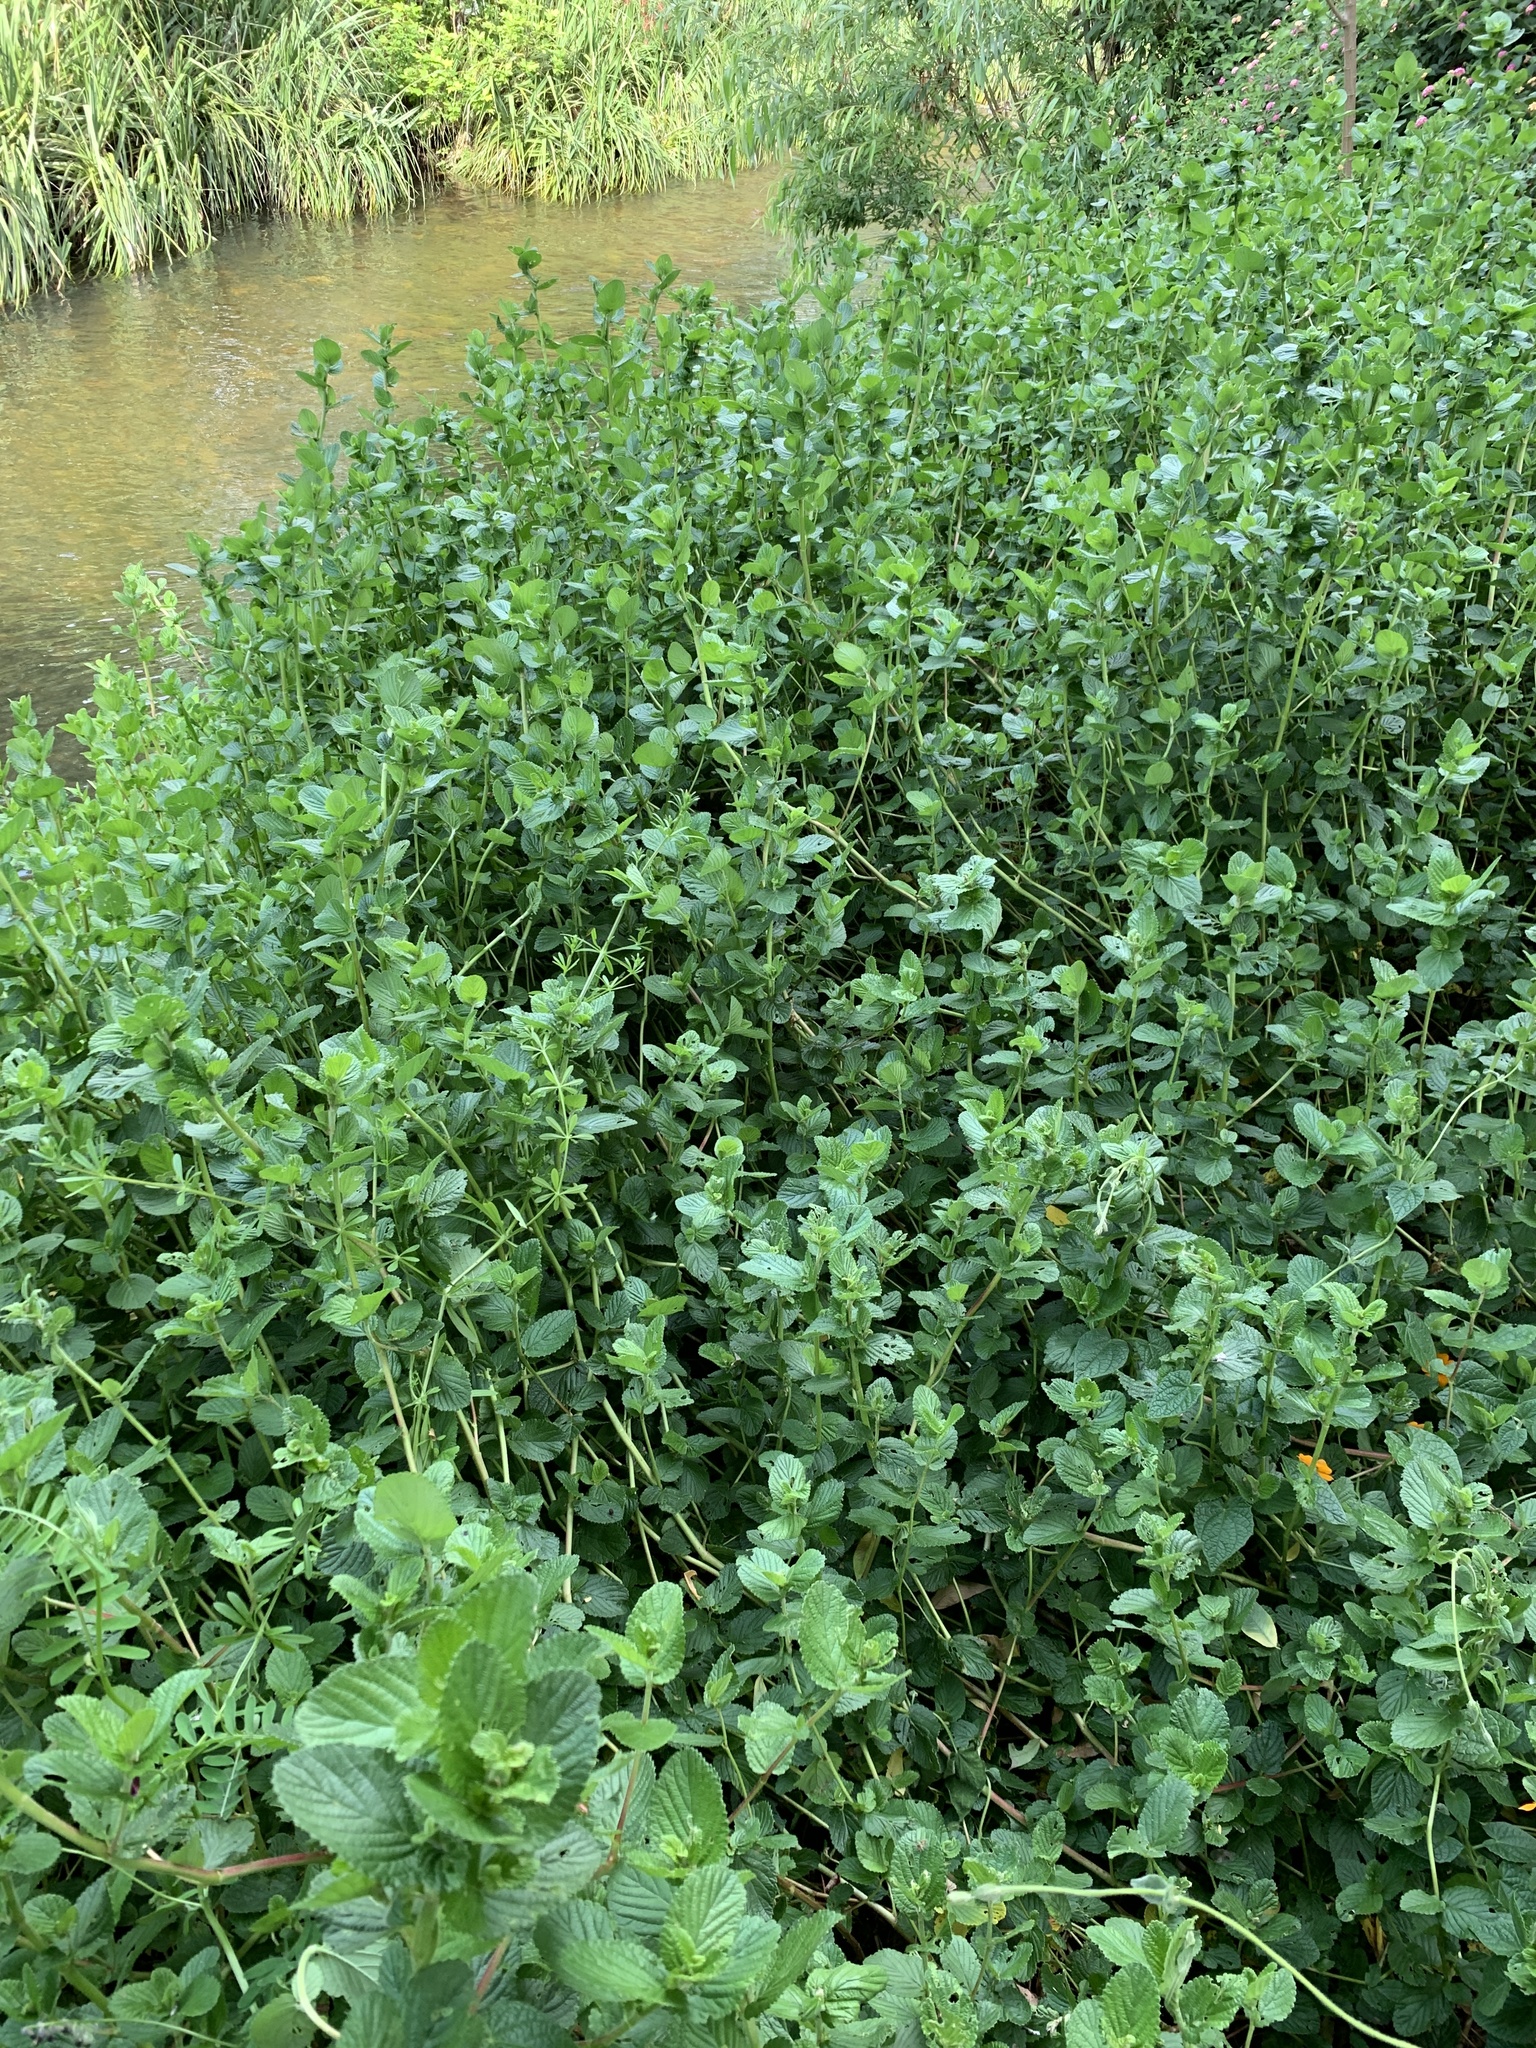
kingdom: Plantae
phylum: Tracheophyta
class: Magnoliopsida
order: Rosales
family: Rosaceae
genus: Cliffortia
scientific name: Cliffortia odorata
